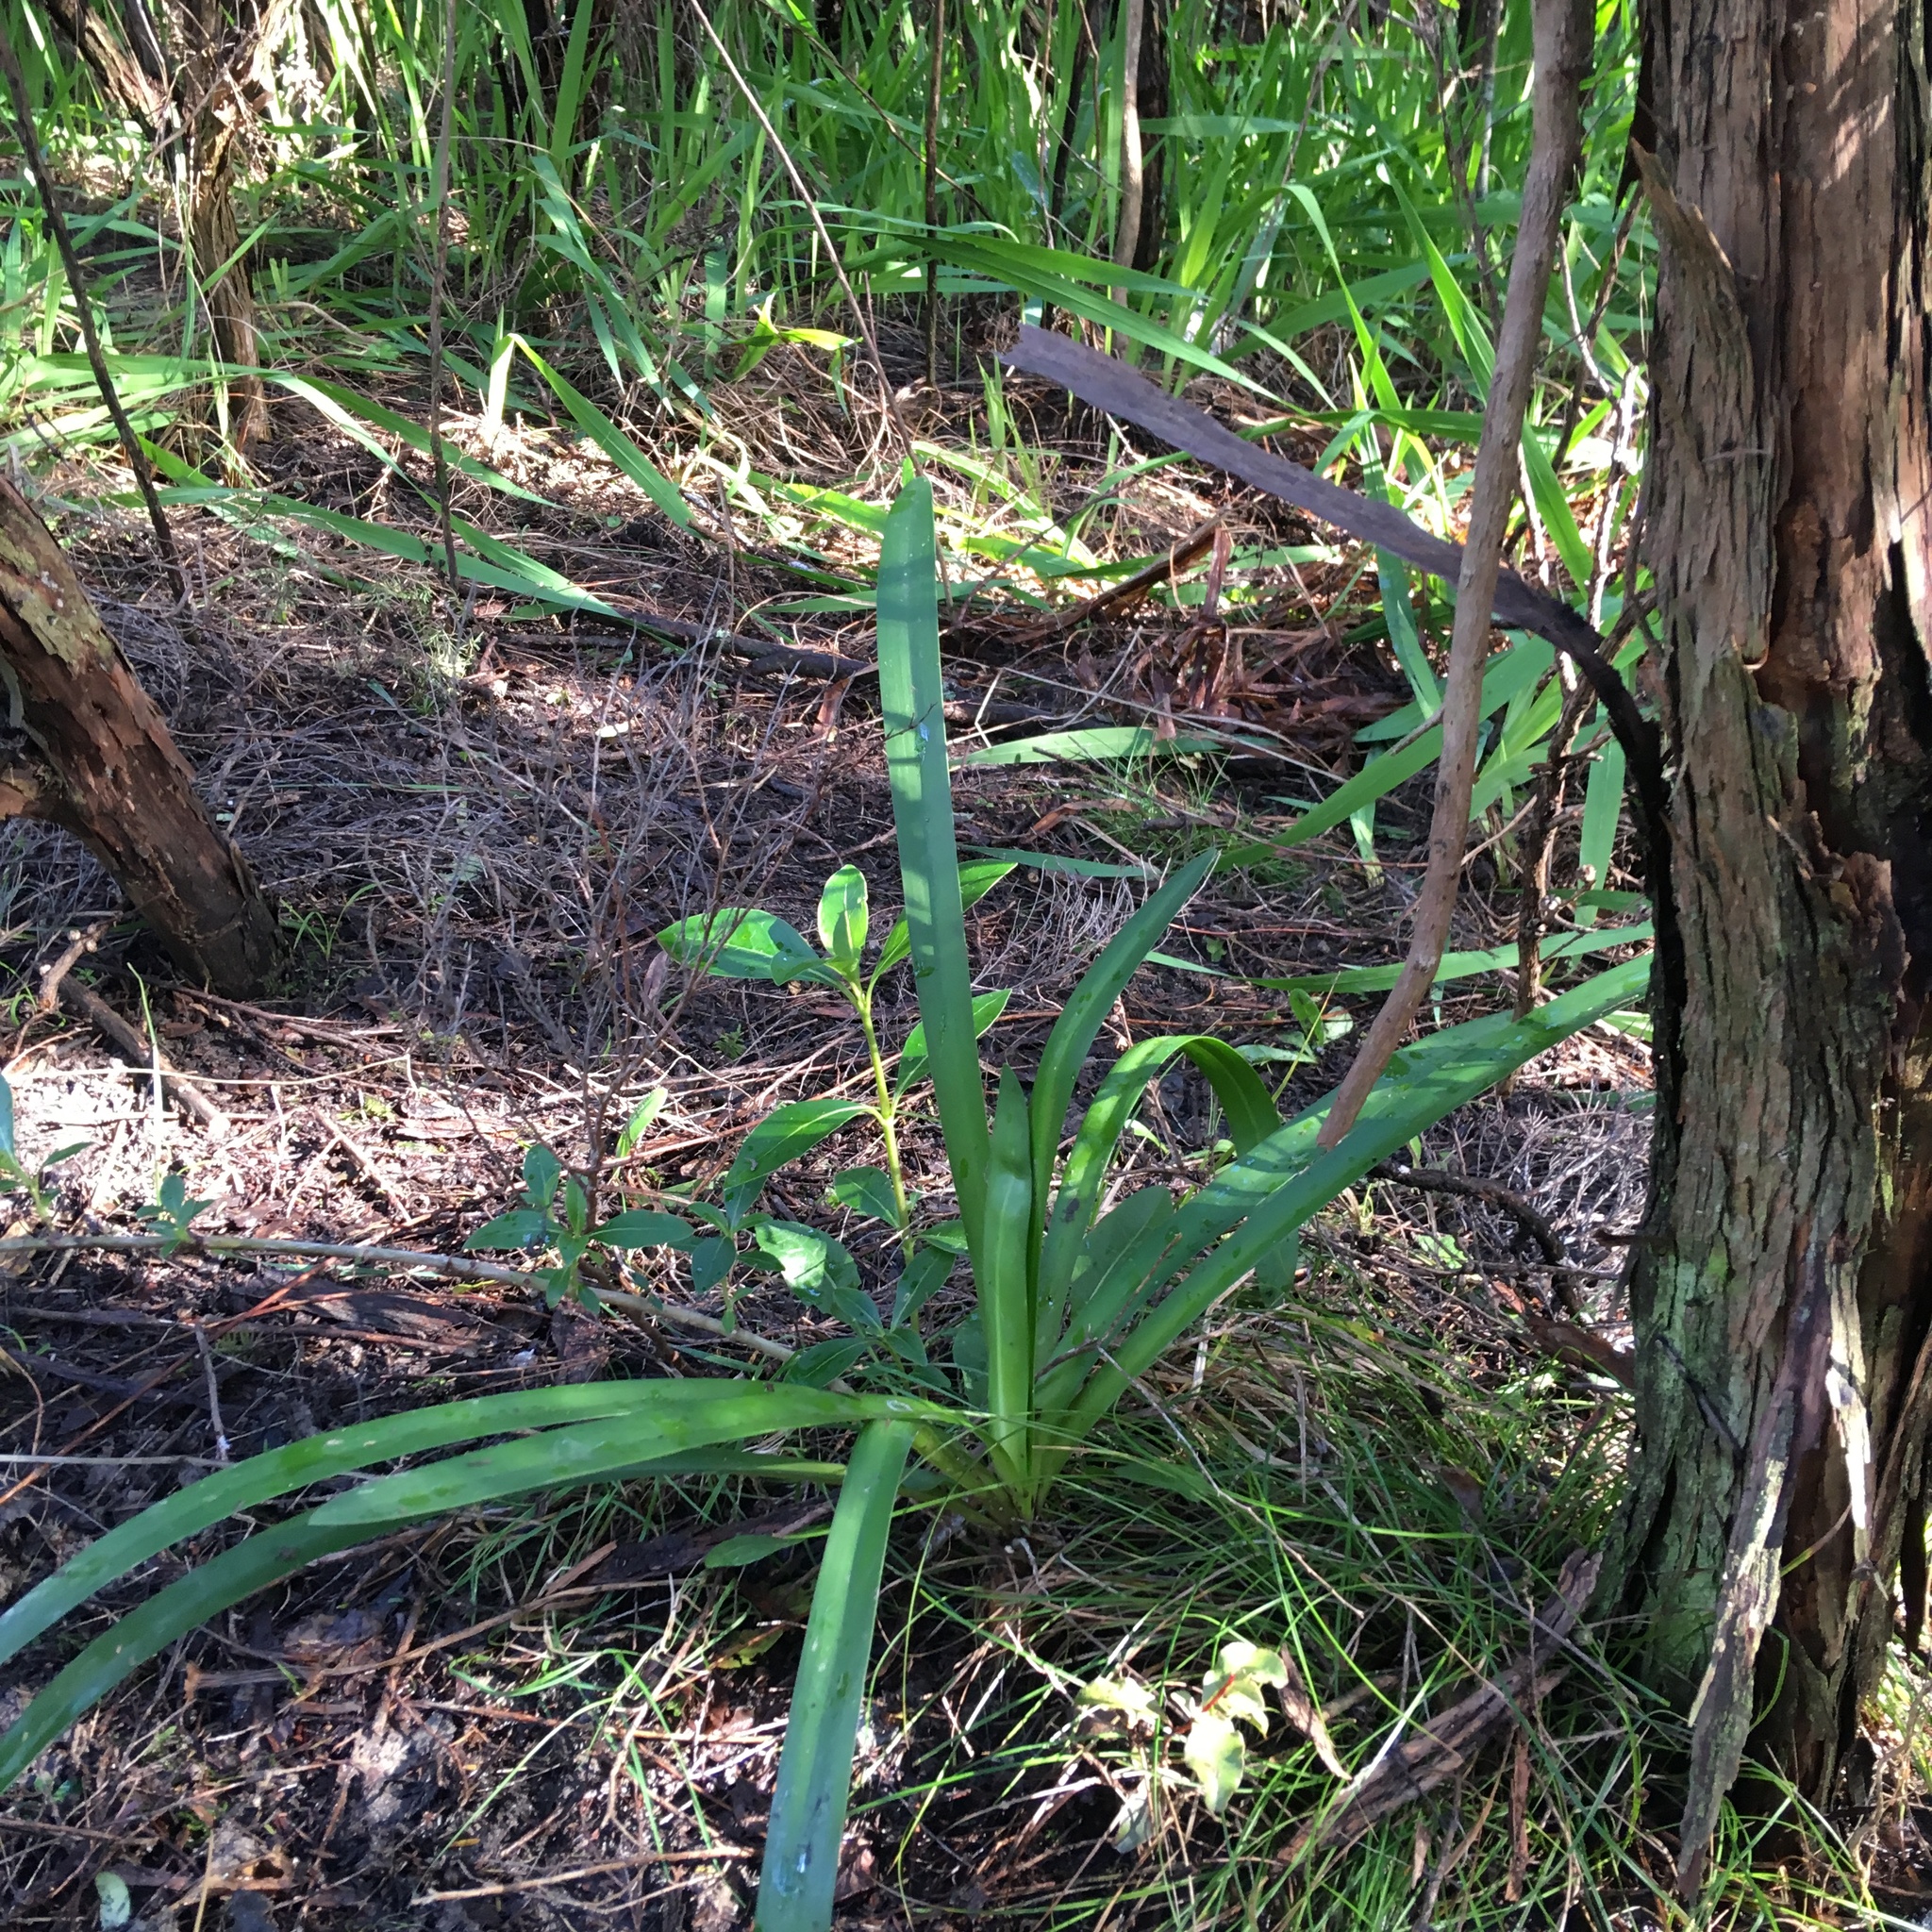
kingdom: Plantae
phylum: Tracheophyta
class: Liliopsida
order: Asparagales
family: Amaryllidaceae
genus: Agapanthus
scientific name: Agapanthus praecox
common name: African-lily
